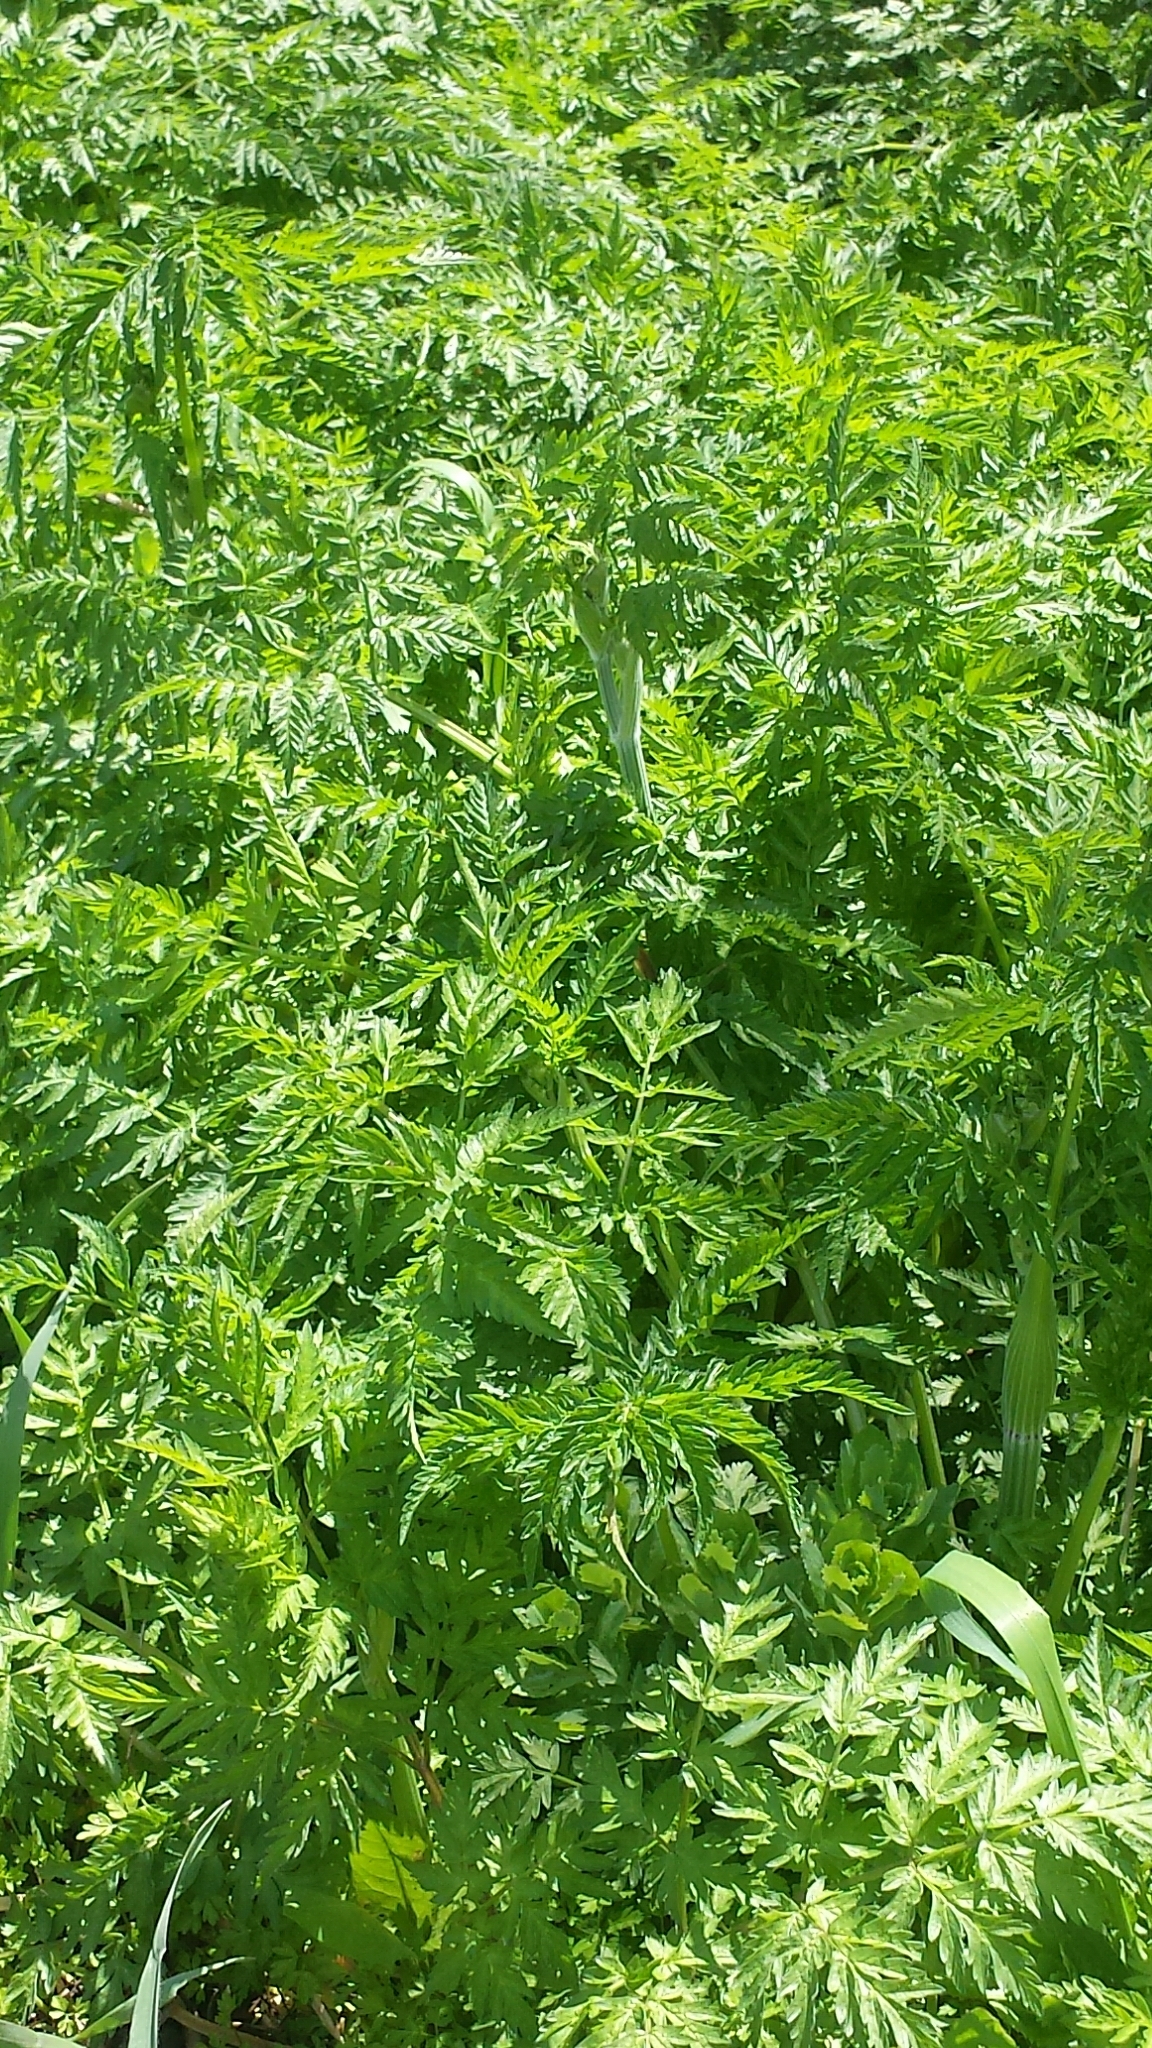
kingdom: Plantae
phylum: Tracheophyta
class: Magnoliopsida
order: Apiales
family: Apiaceae
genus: Anthriscus
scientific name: Anthriscus sylvestris
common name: Cow parsley
